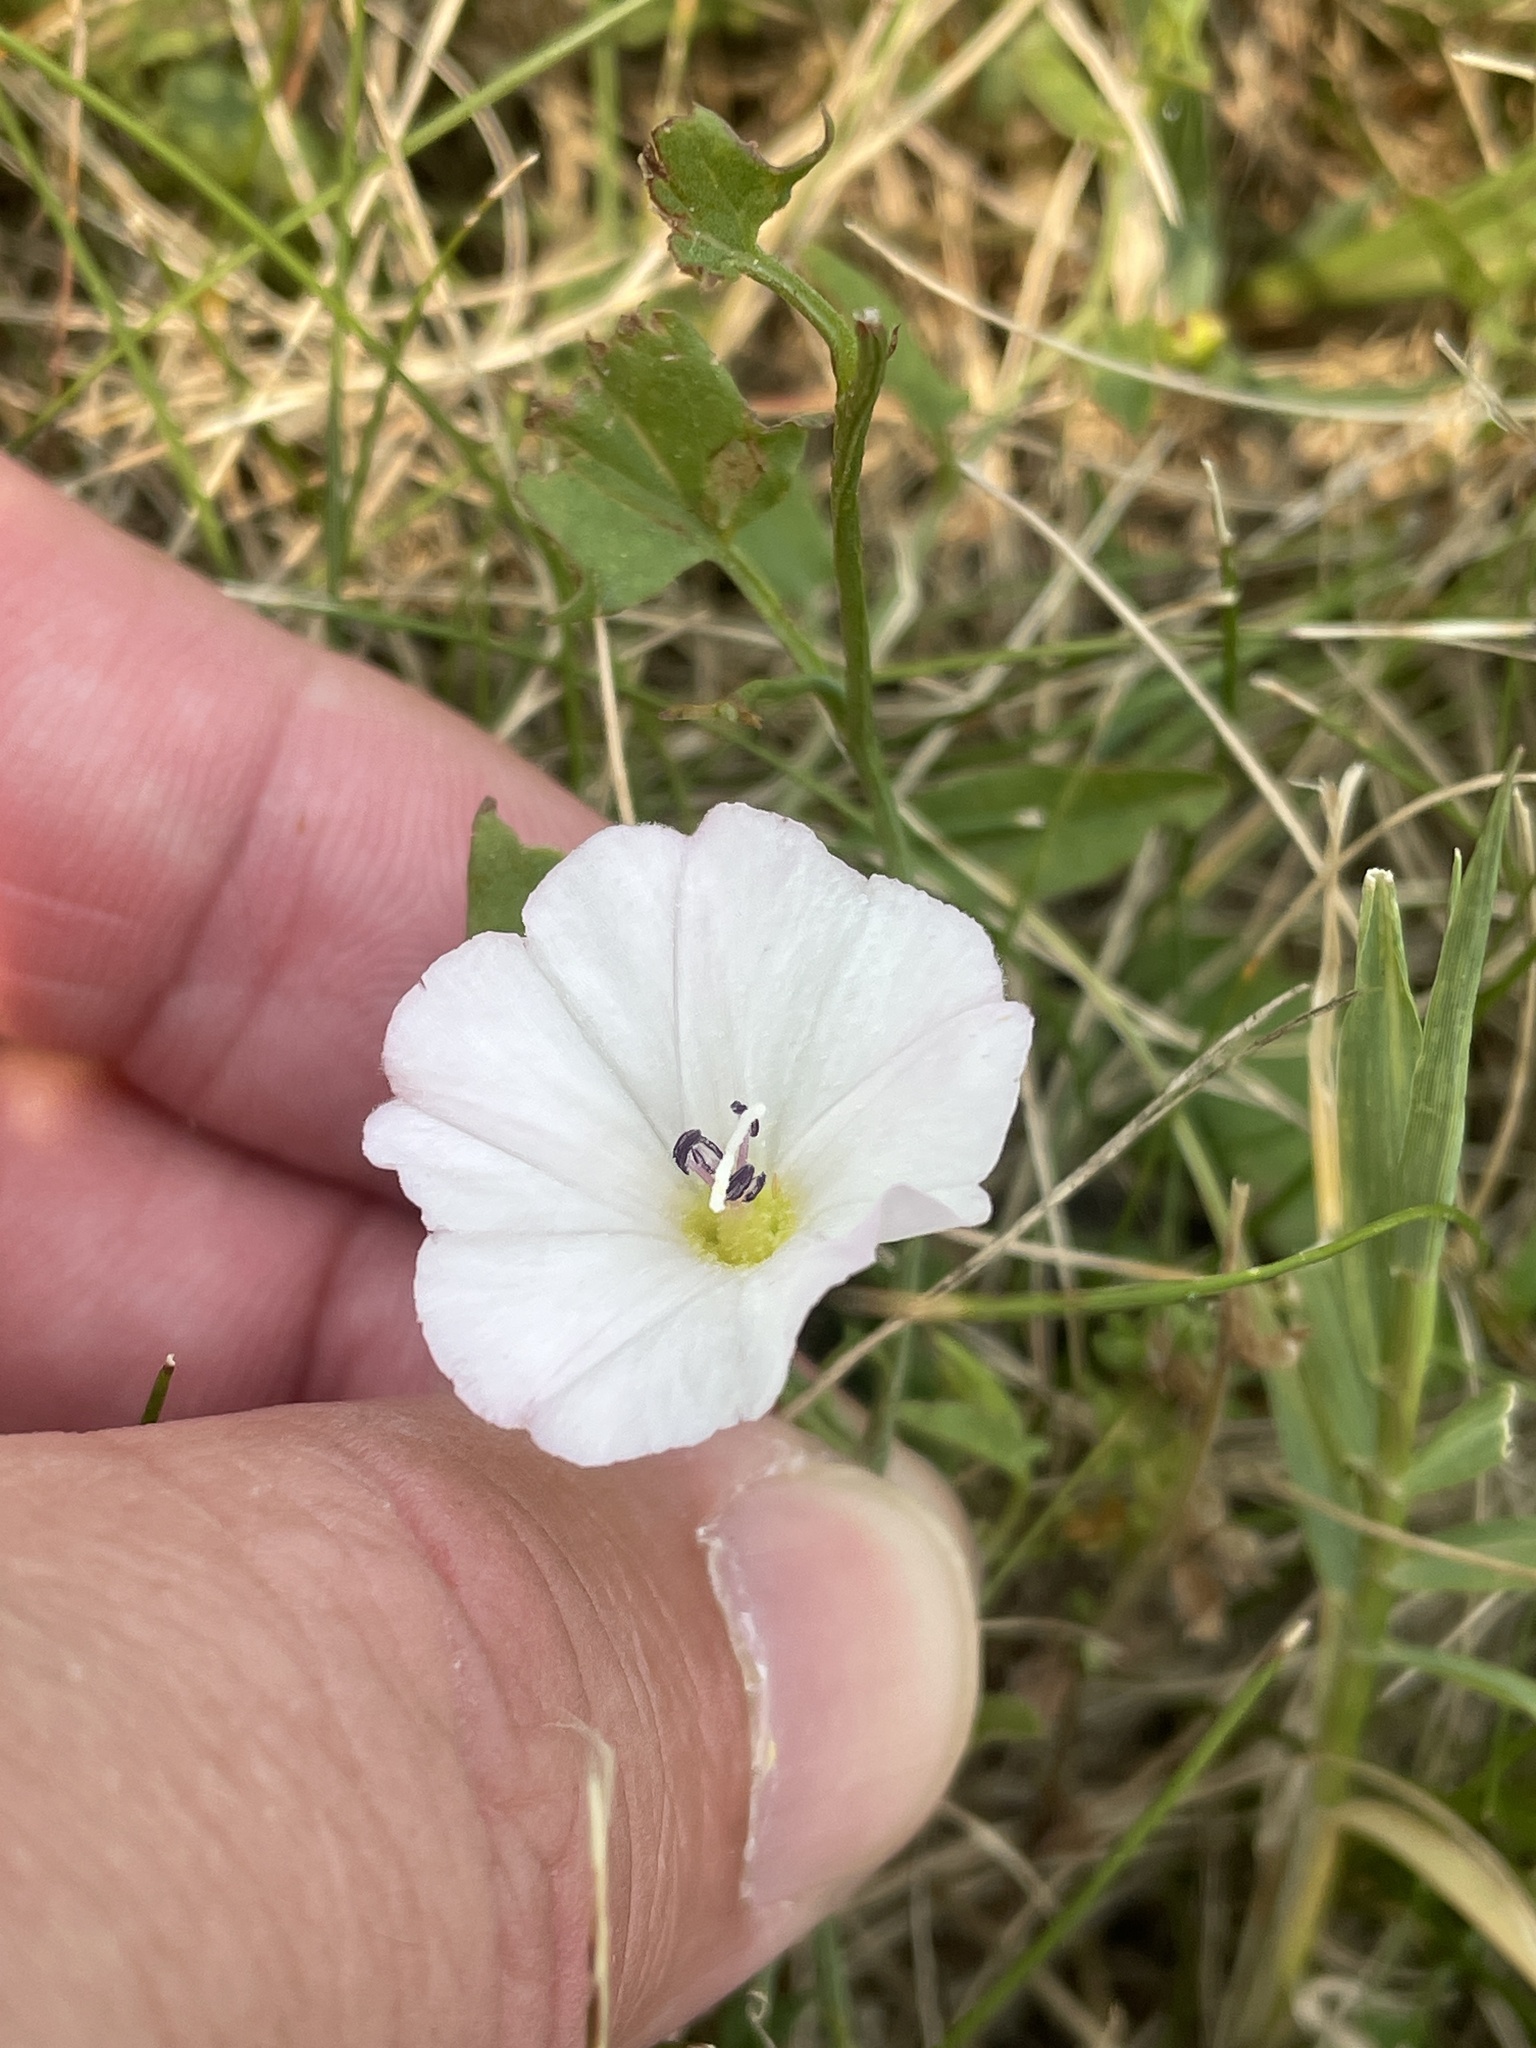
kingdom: Plantae
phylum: Tracheophyta
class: Magnoliopsida
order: Solanales
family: Convolvulaceae
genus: Convolvulus
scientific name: Convolvulus arvensis
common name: Field bindweed
